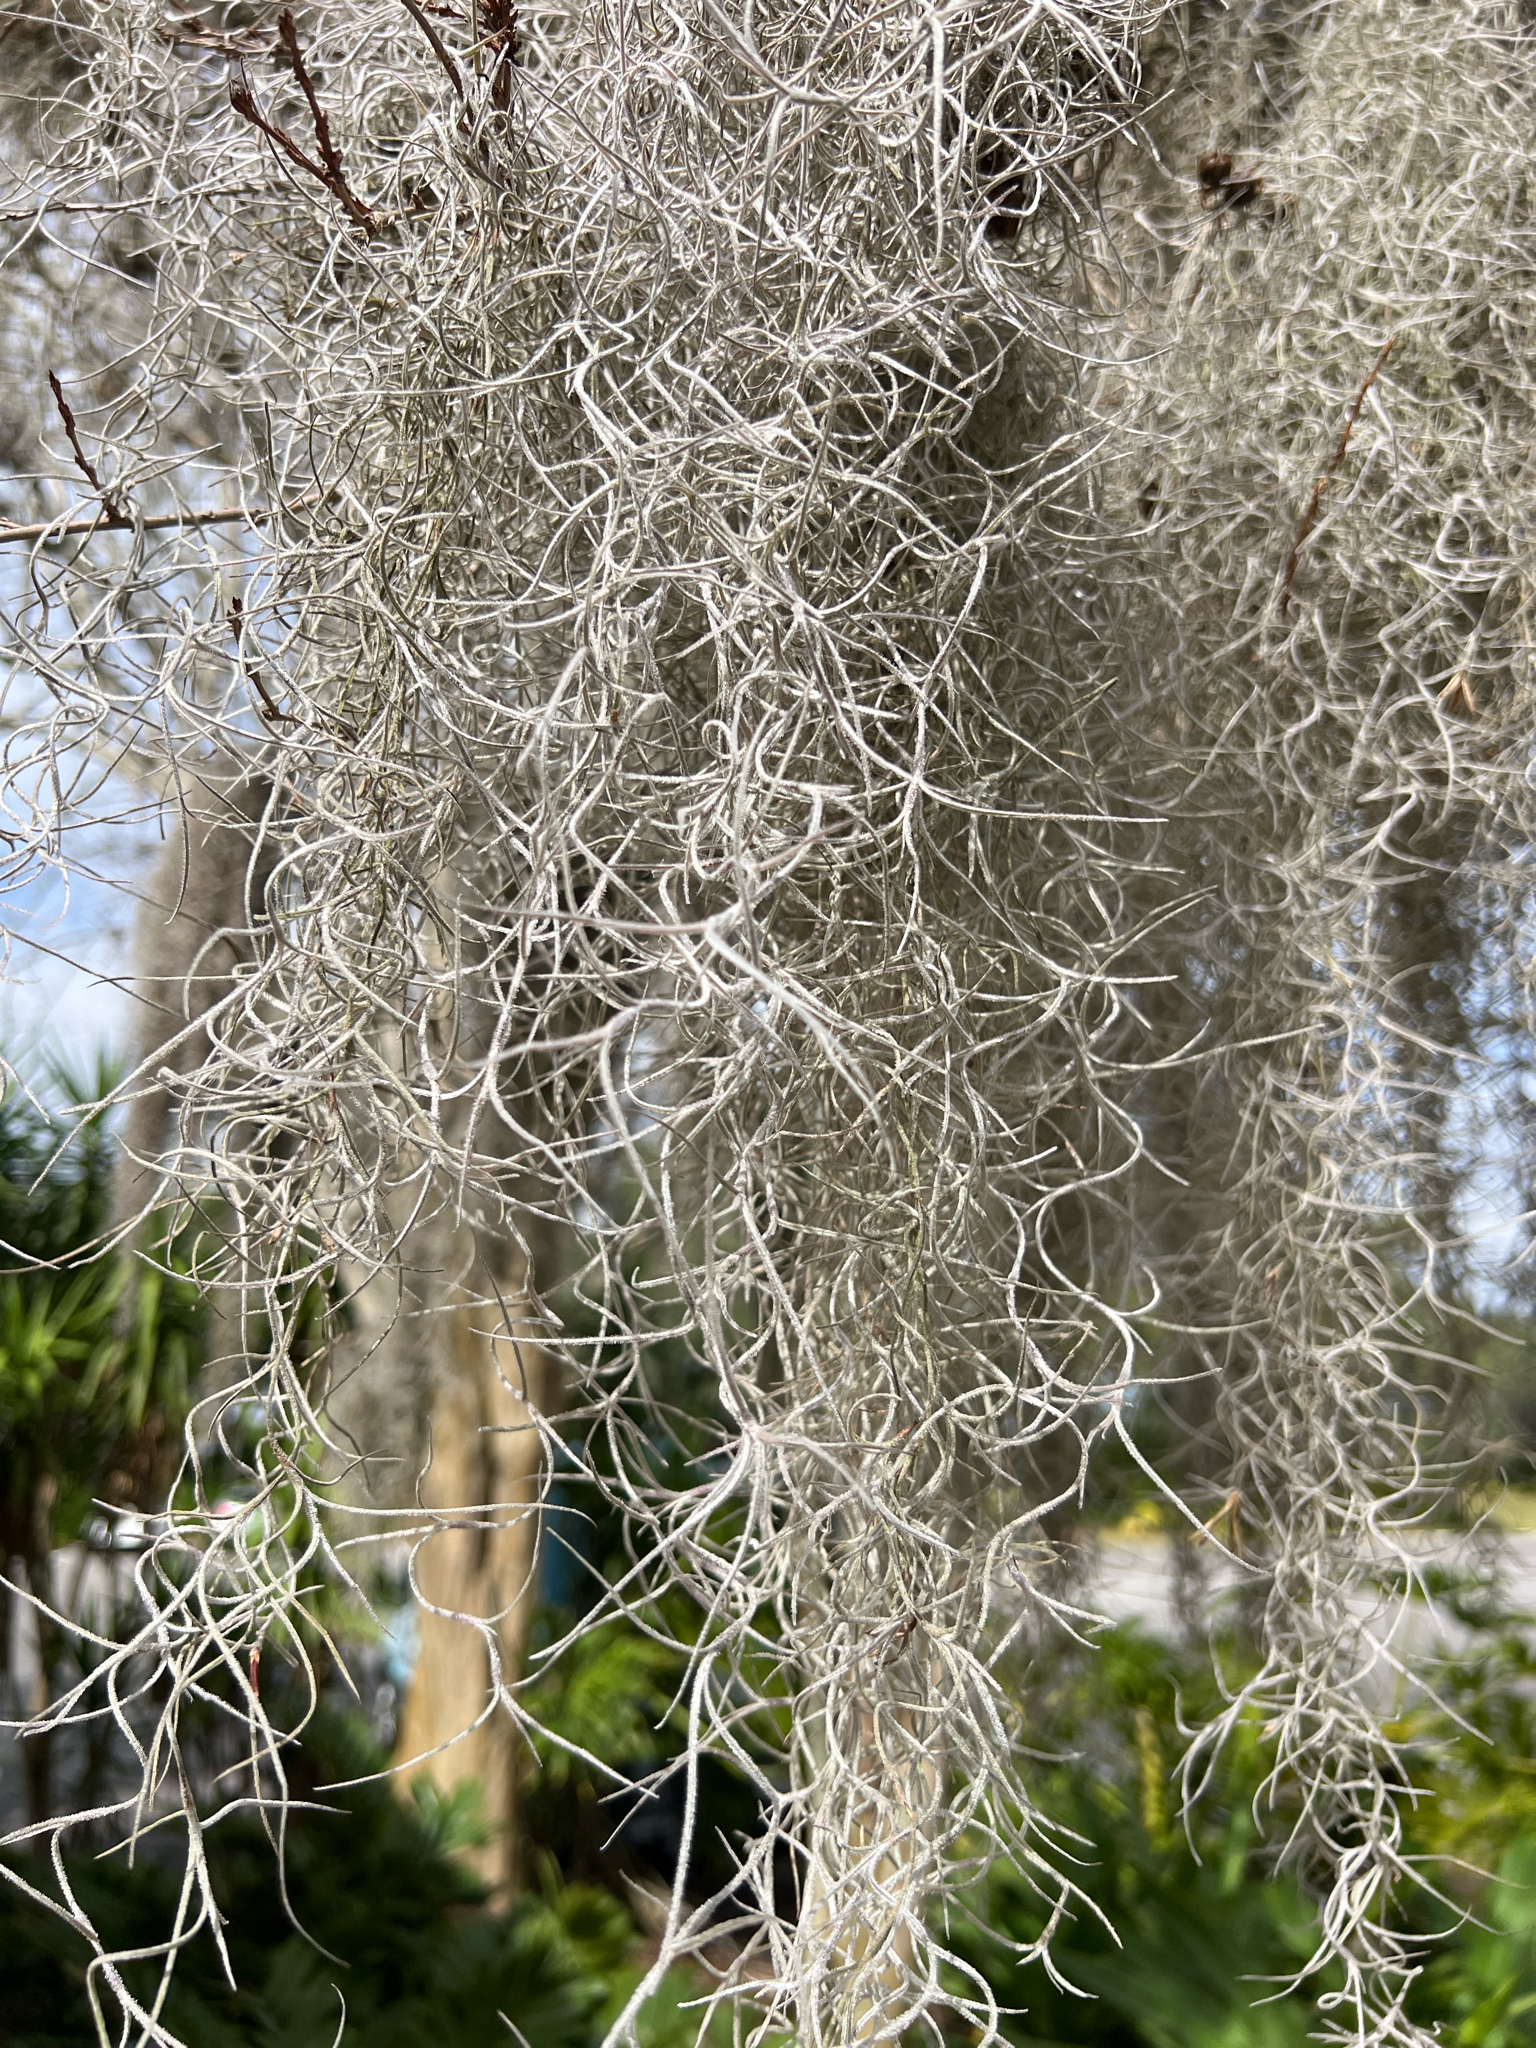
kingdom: Plantae
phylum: Tracheophyta
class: Liliopsida
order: Poales
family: Bromeliaceae
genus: Tillandsia
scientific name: Tillandsia usneoides
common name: Spanish moss
